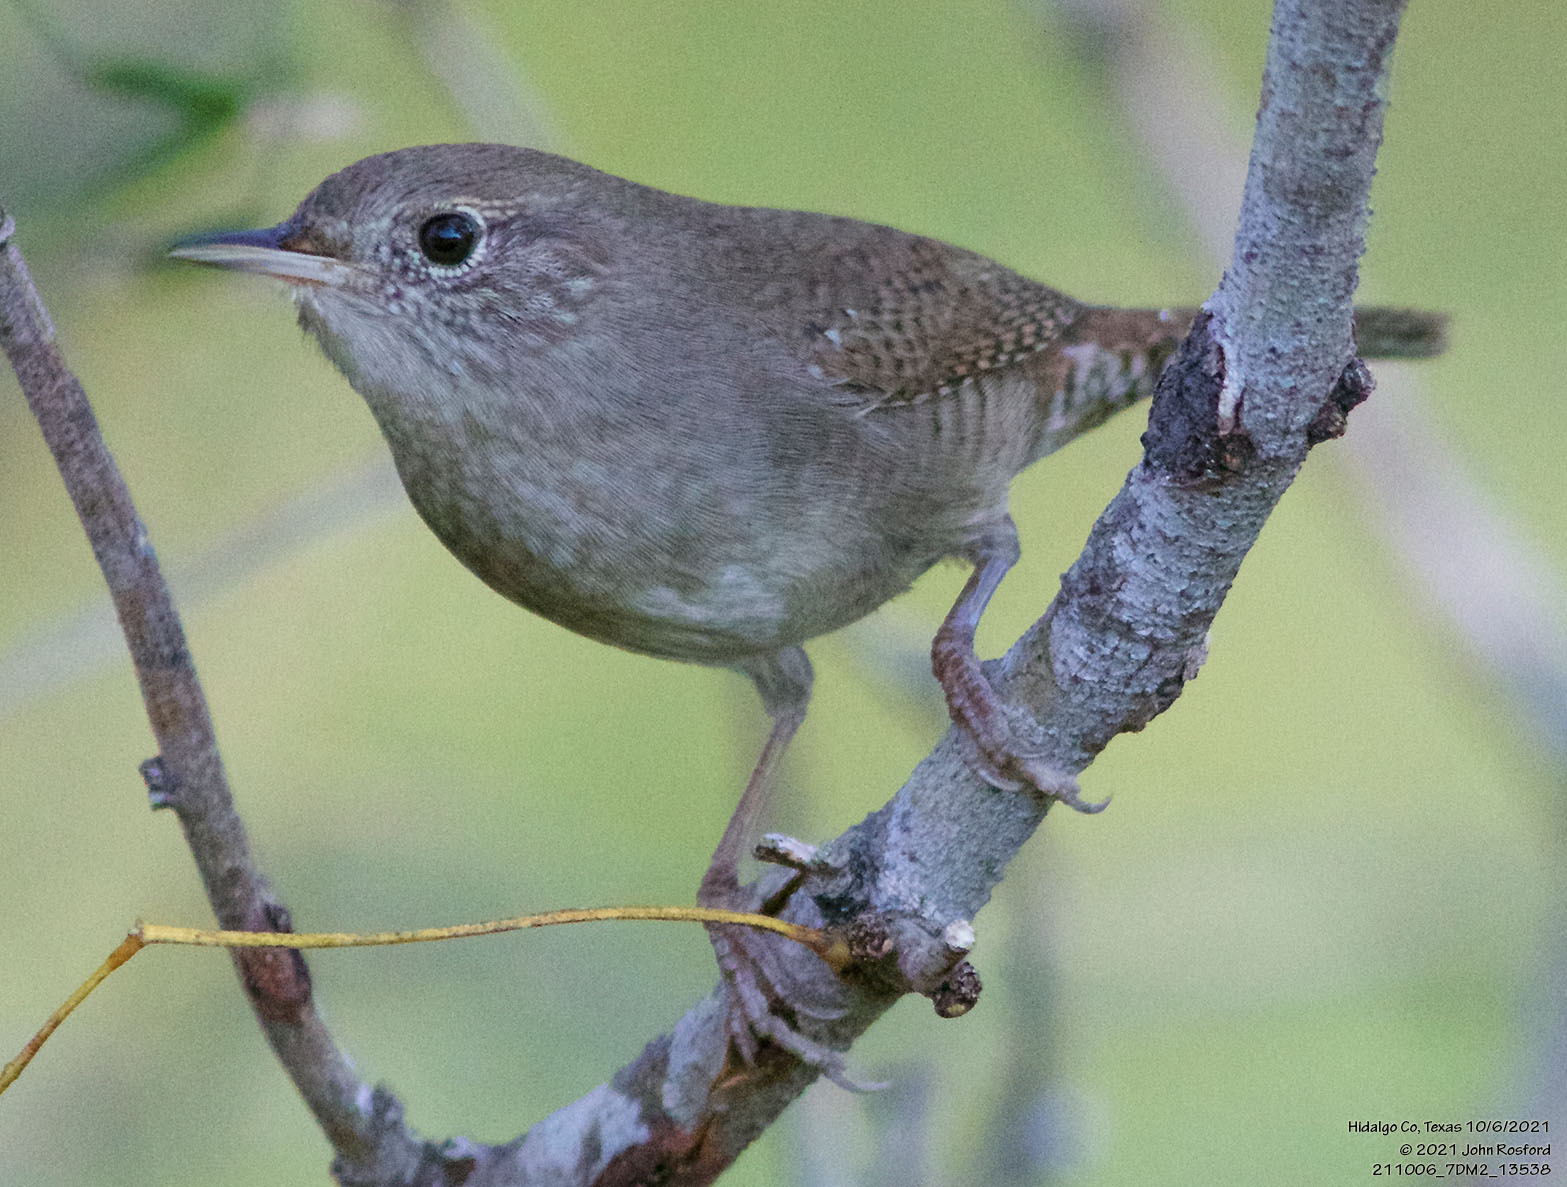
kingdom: Animalia
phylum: Chordata
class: Aves
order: Passeriformes
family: Troglodytidae
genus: Troglodytes
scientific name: Troglodytes aedon
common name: House wren
